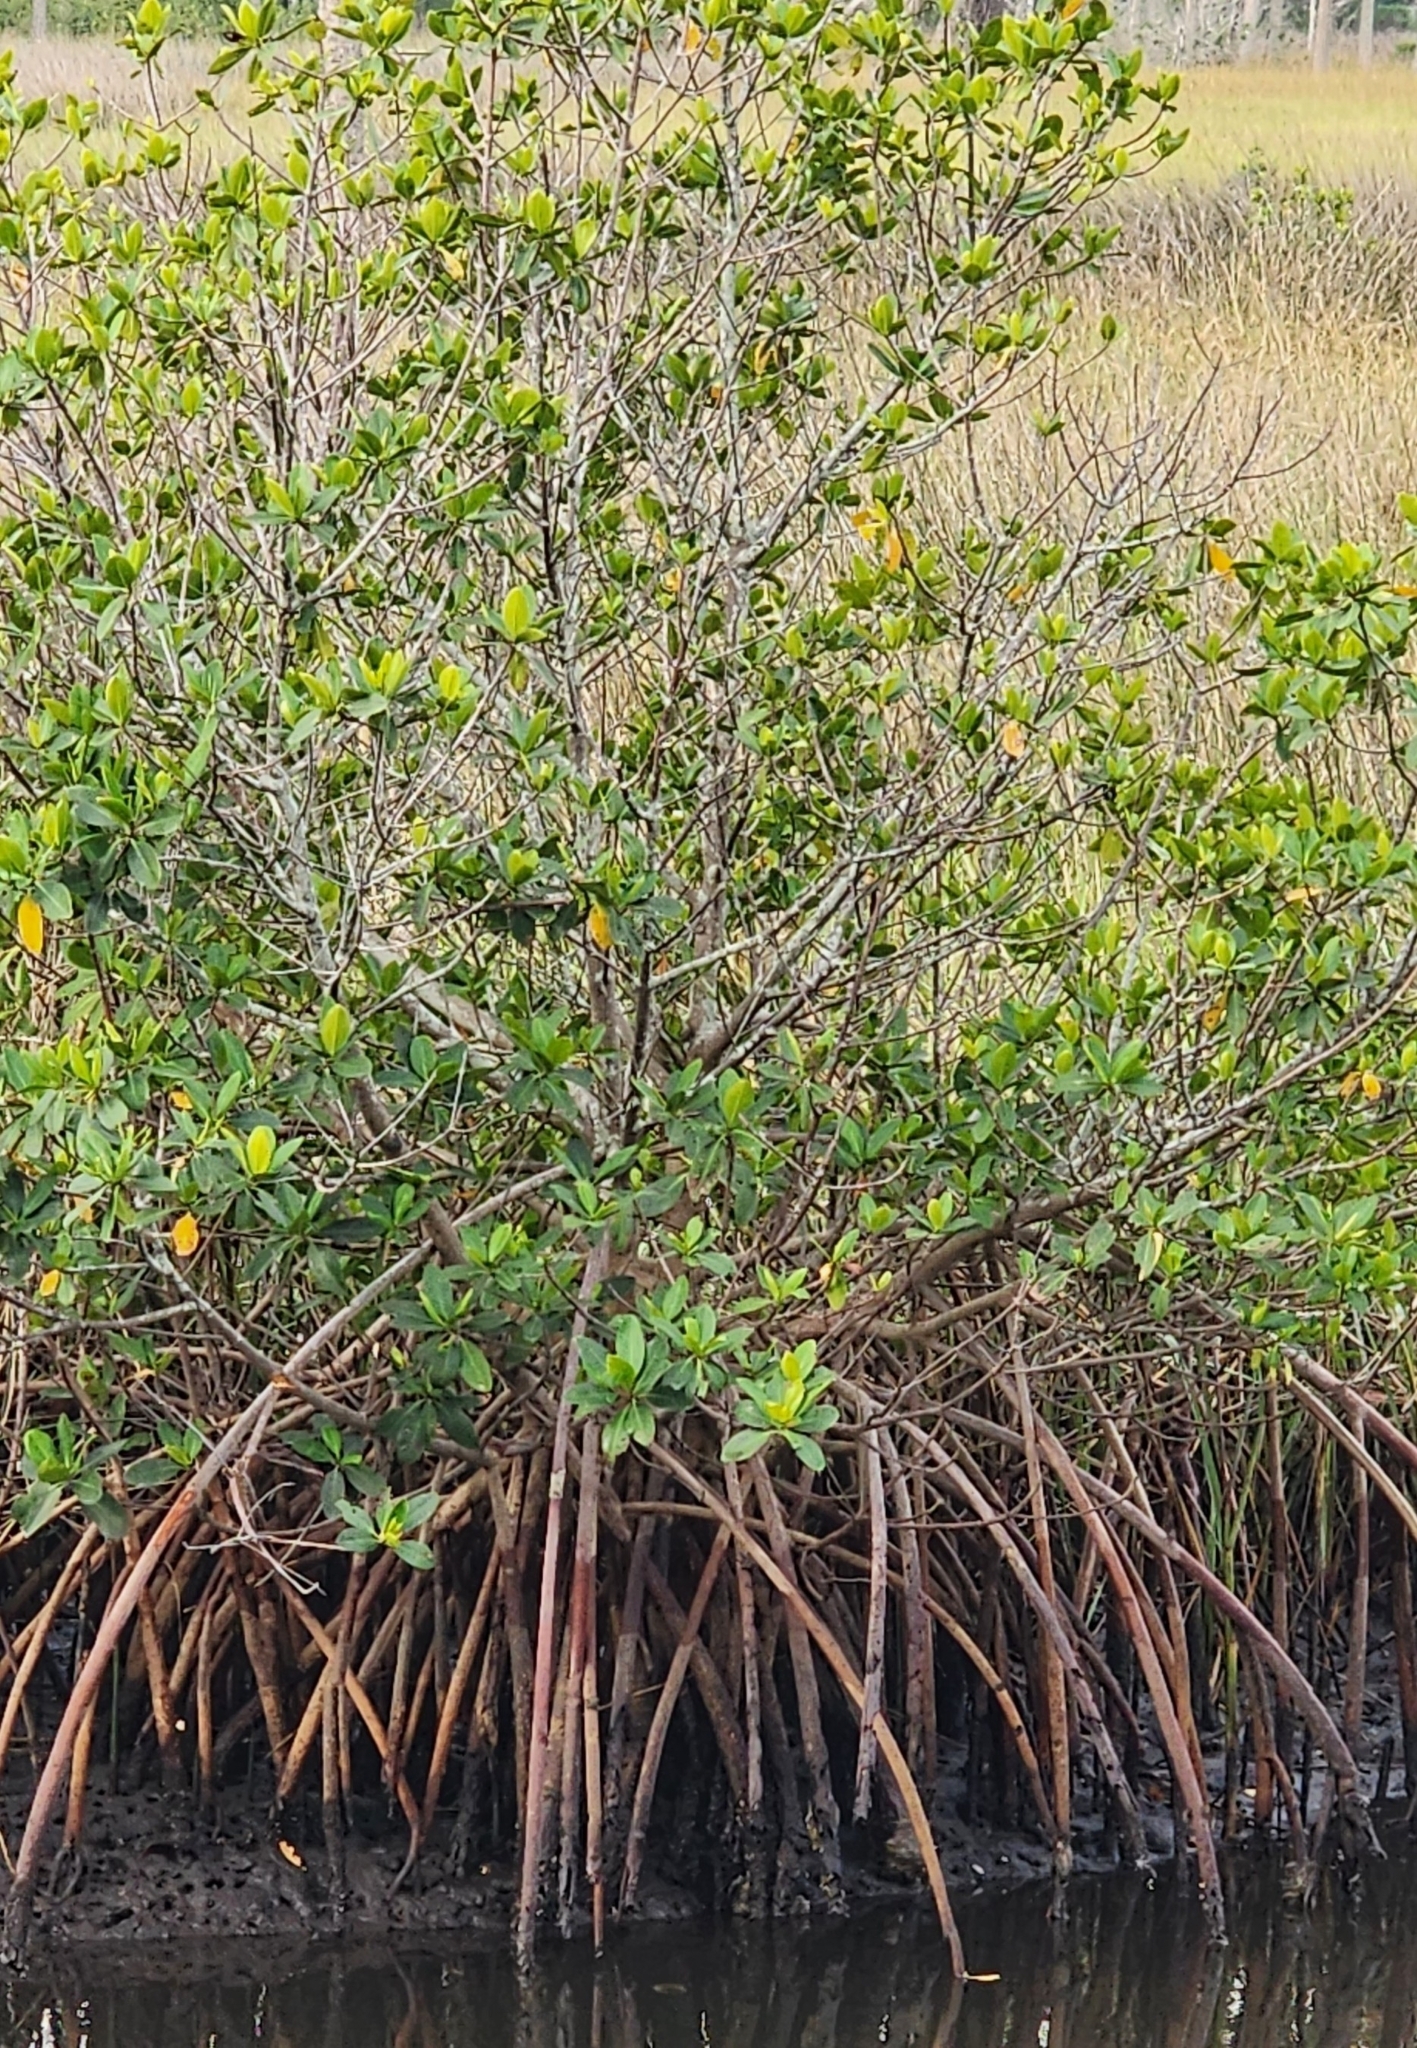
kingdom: Plantae
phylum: Tracheophyta
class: Magnoliopsida
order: Malpighiales
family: Rhizophoraceae
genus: Rhizophora
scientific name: Rhizophora mangle
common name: Red mangrove
